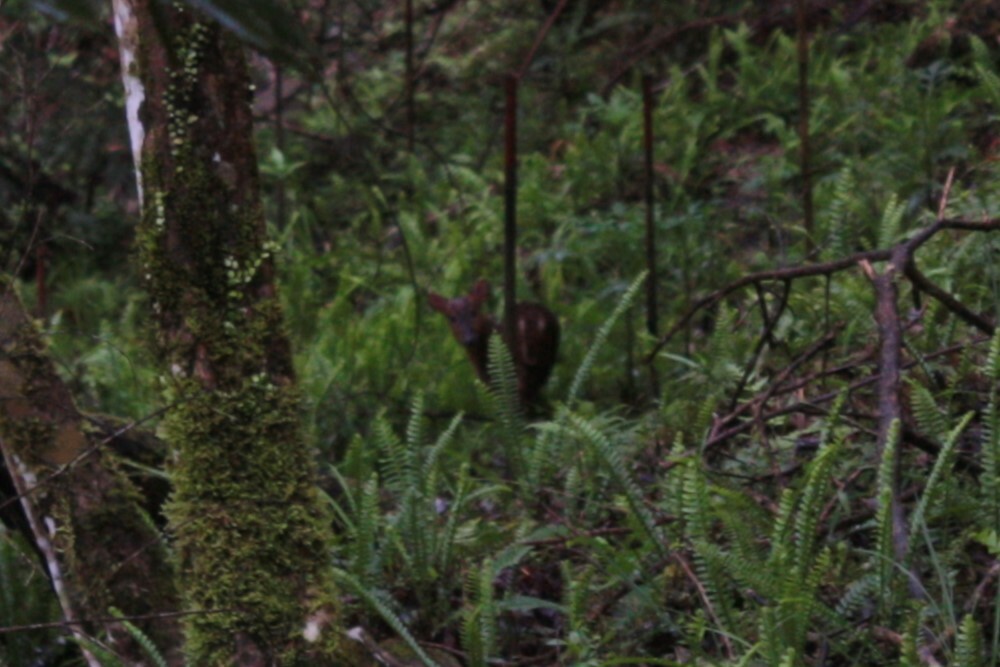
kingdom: Animalia
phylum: Chordata
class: Mammalia
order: Artiodactyla
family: Cervidae
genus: Muntiacus
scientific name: Muntiacus reevesi
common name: Reeves' muntjac
